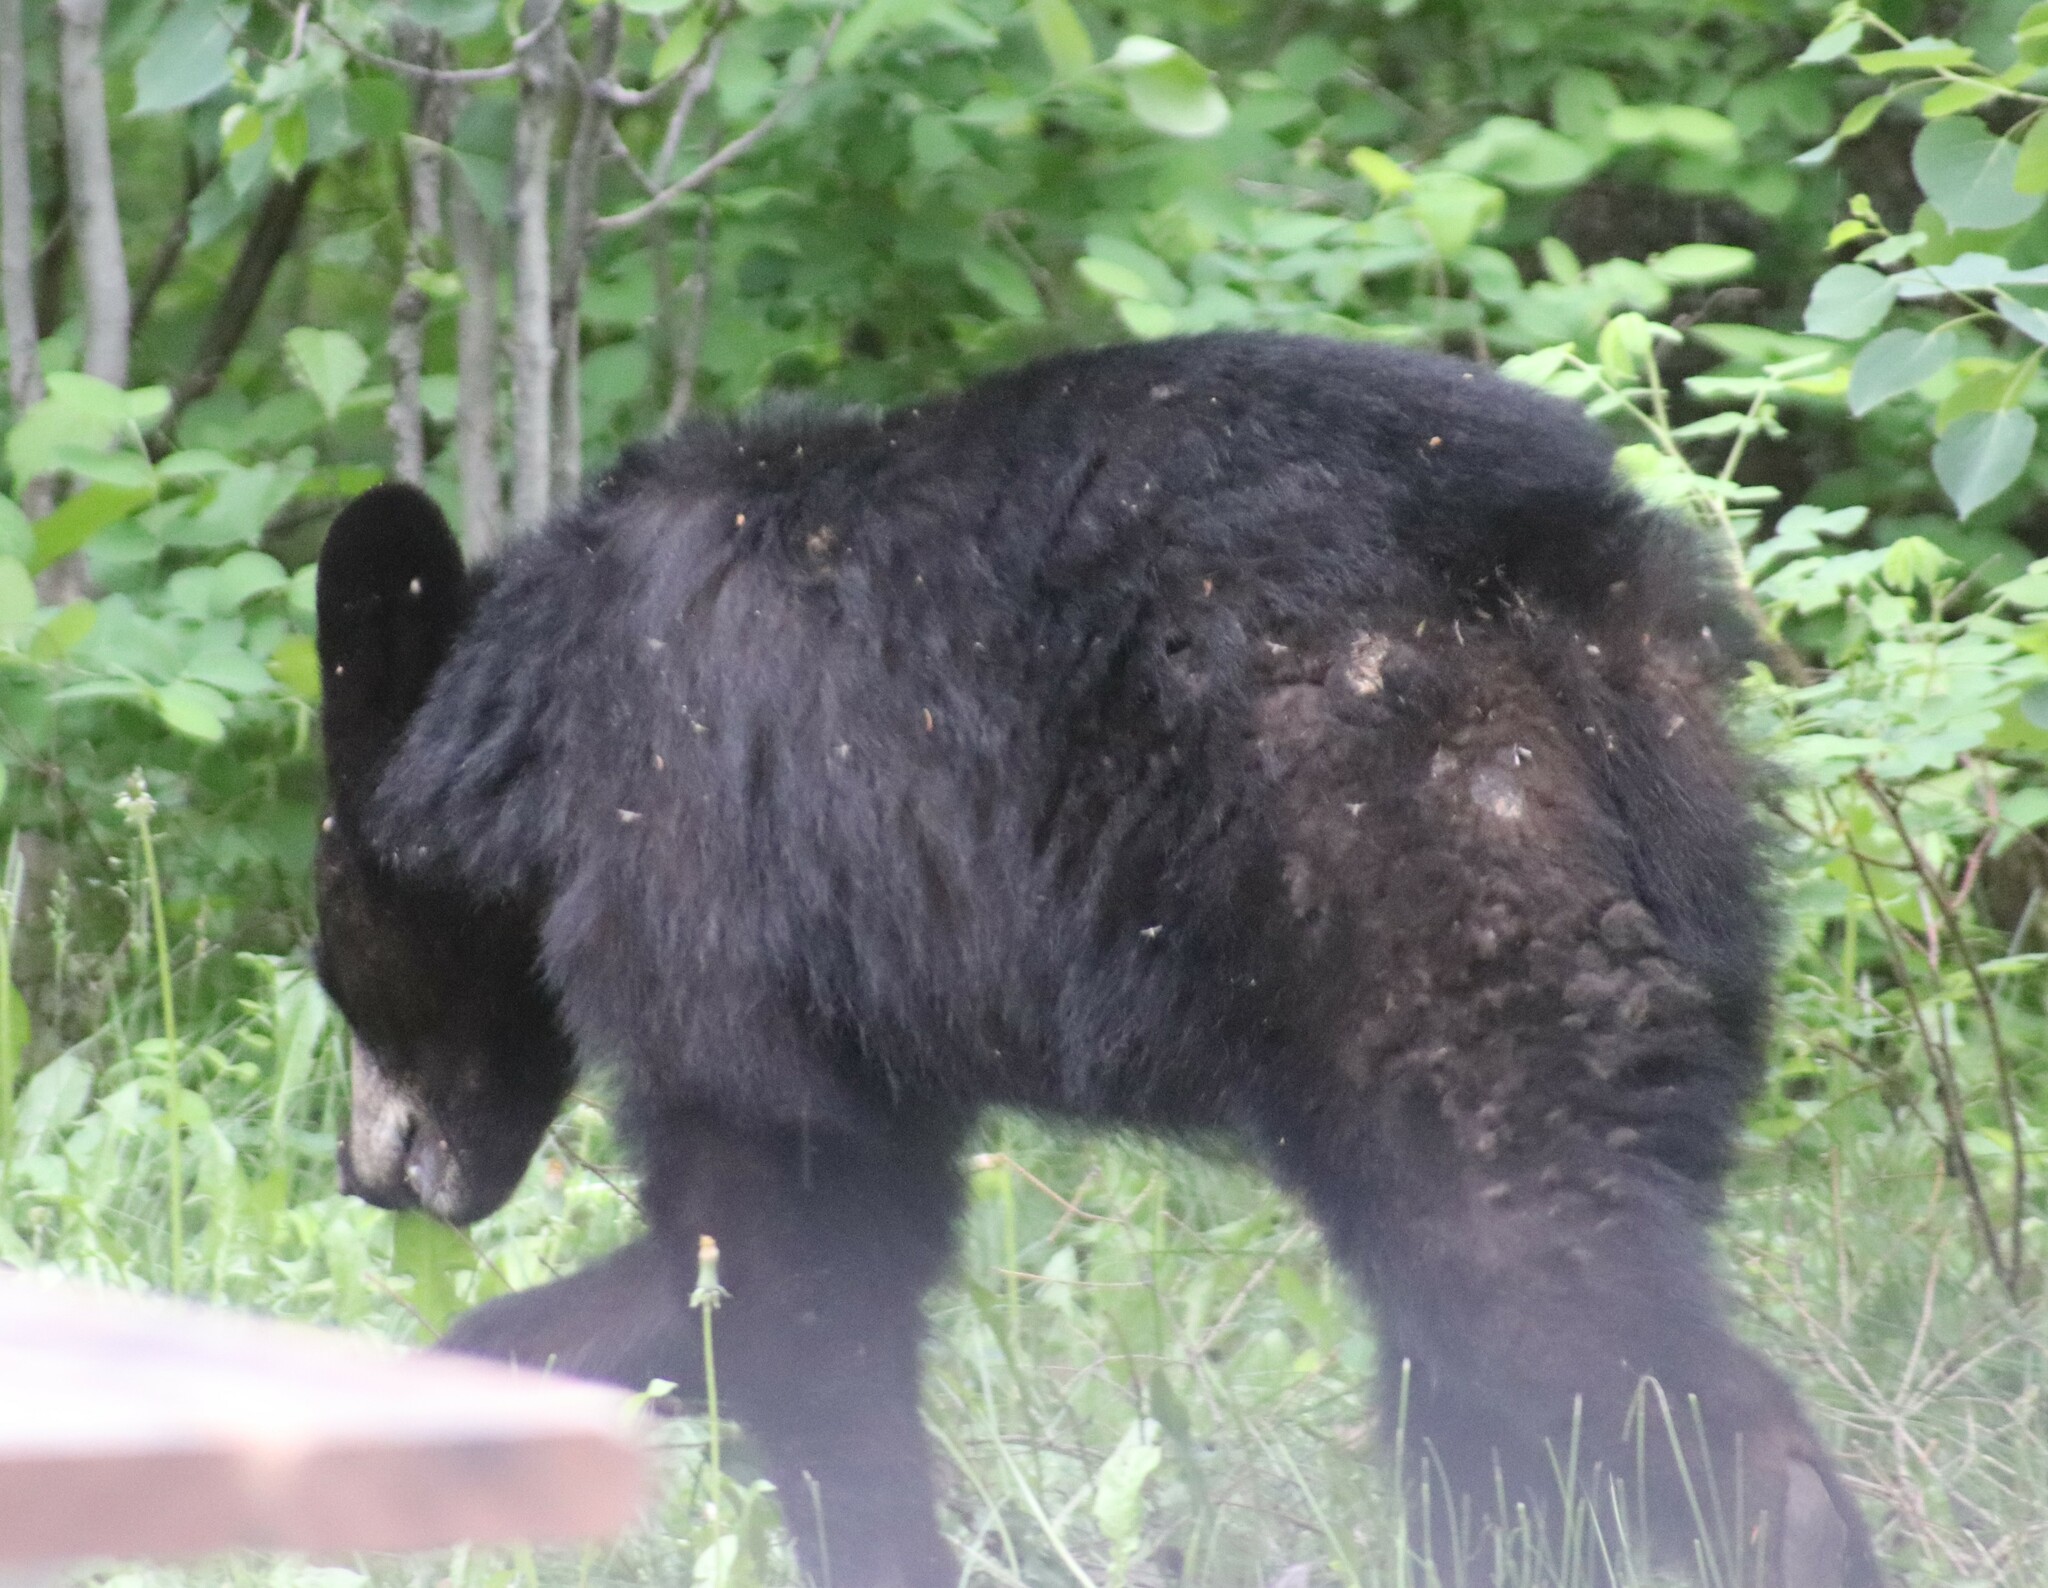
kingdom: Animalia
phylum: Chordata
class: Mammalia
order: Carnivora
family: Ursidae
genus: Ursus
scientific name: Ursus americanus
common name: American black bear
